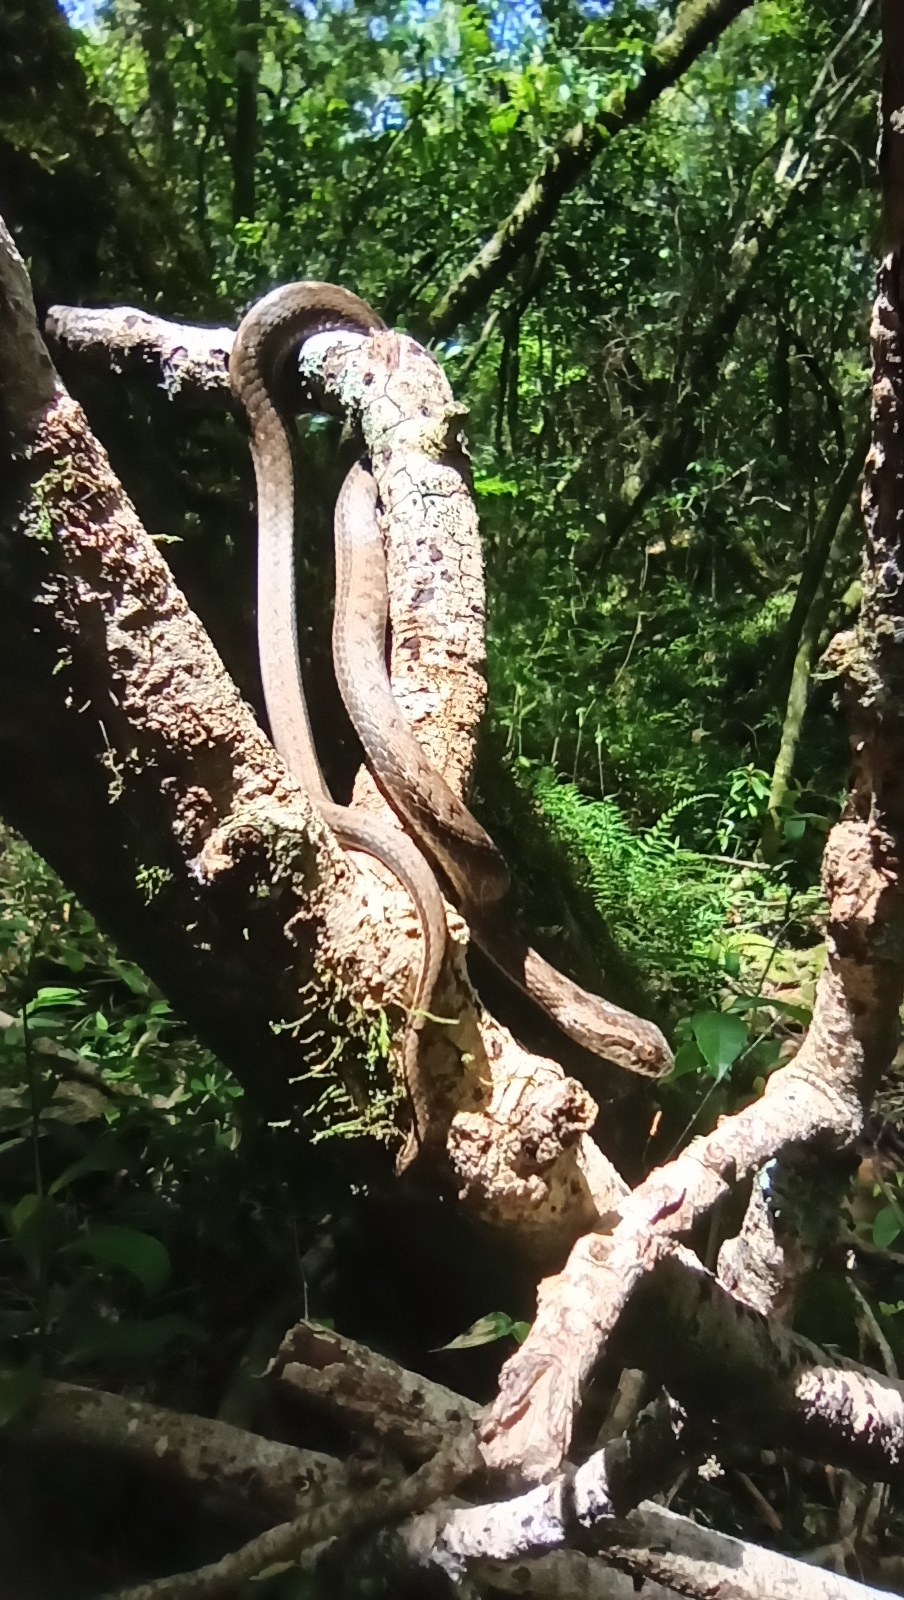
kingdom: Animalia
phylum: Chordata
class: Squamata
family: Colubridae
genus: Mesotes
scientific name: Mesotes
